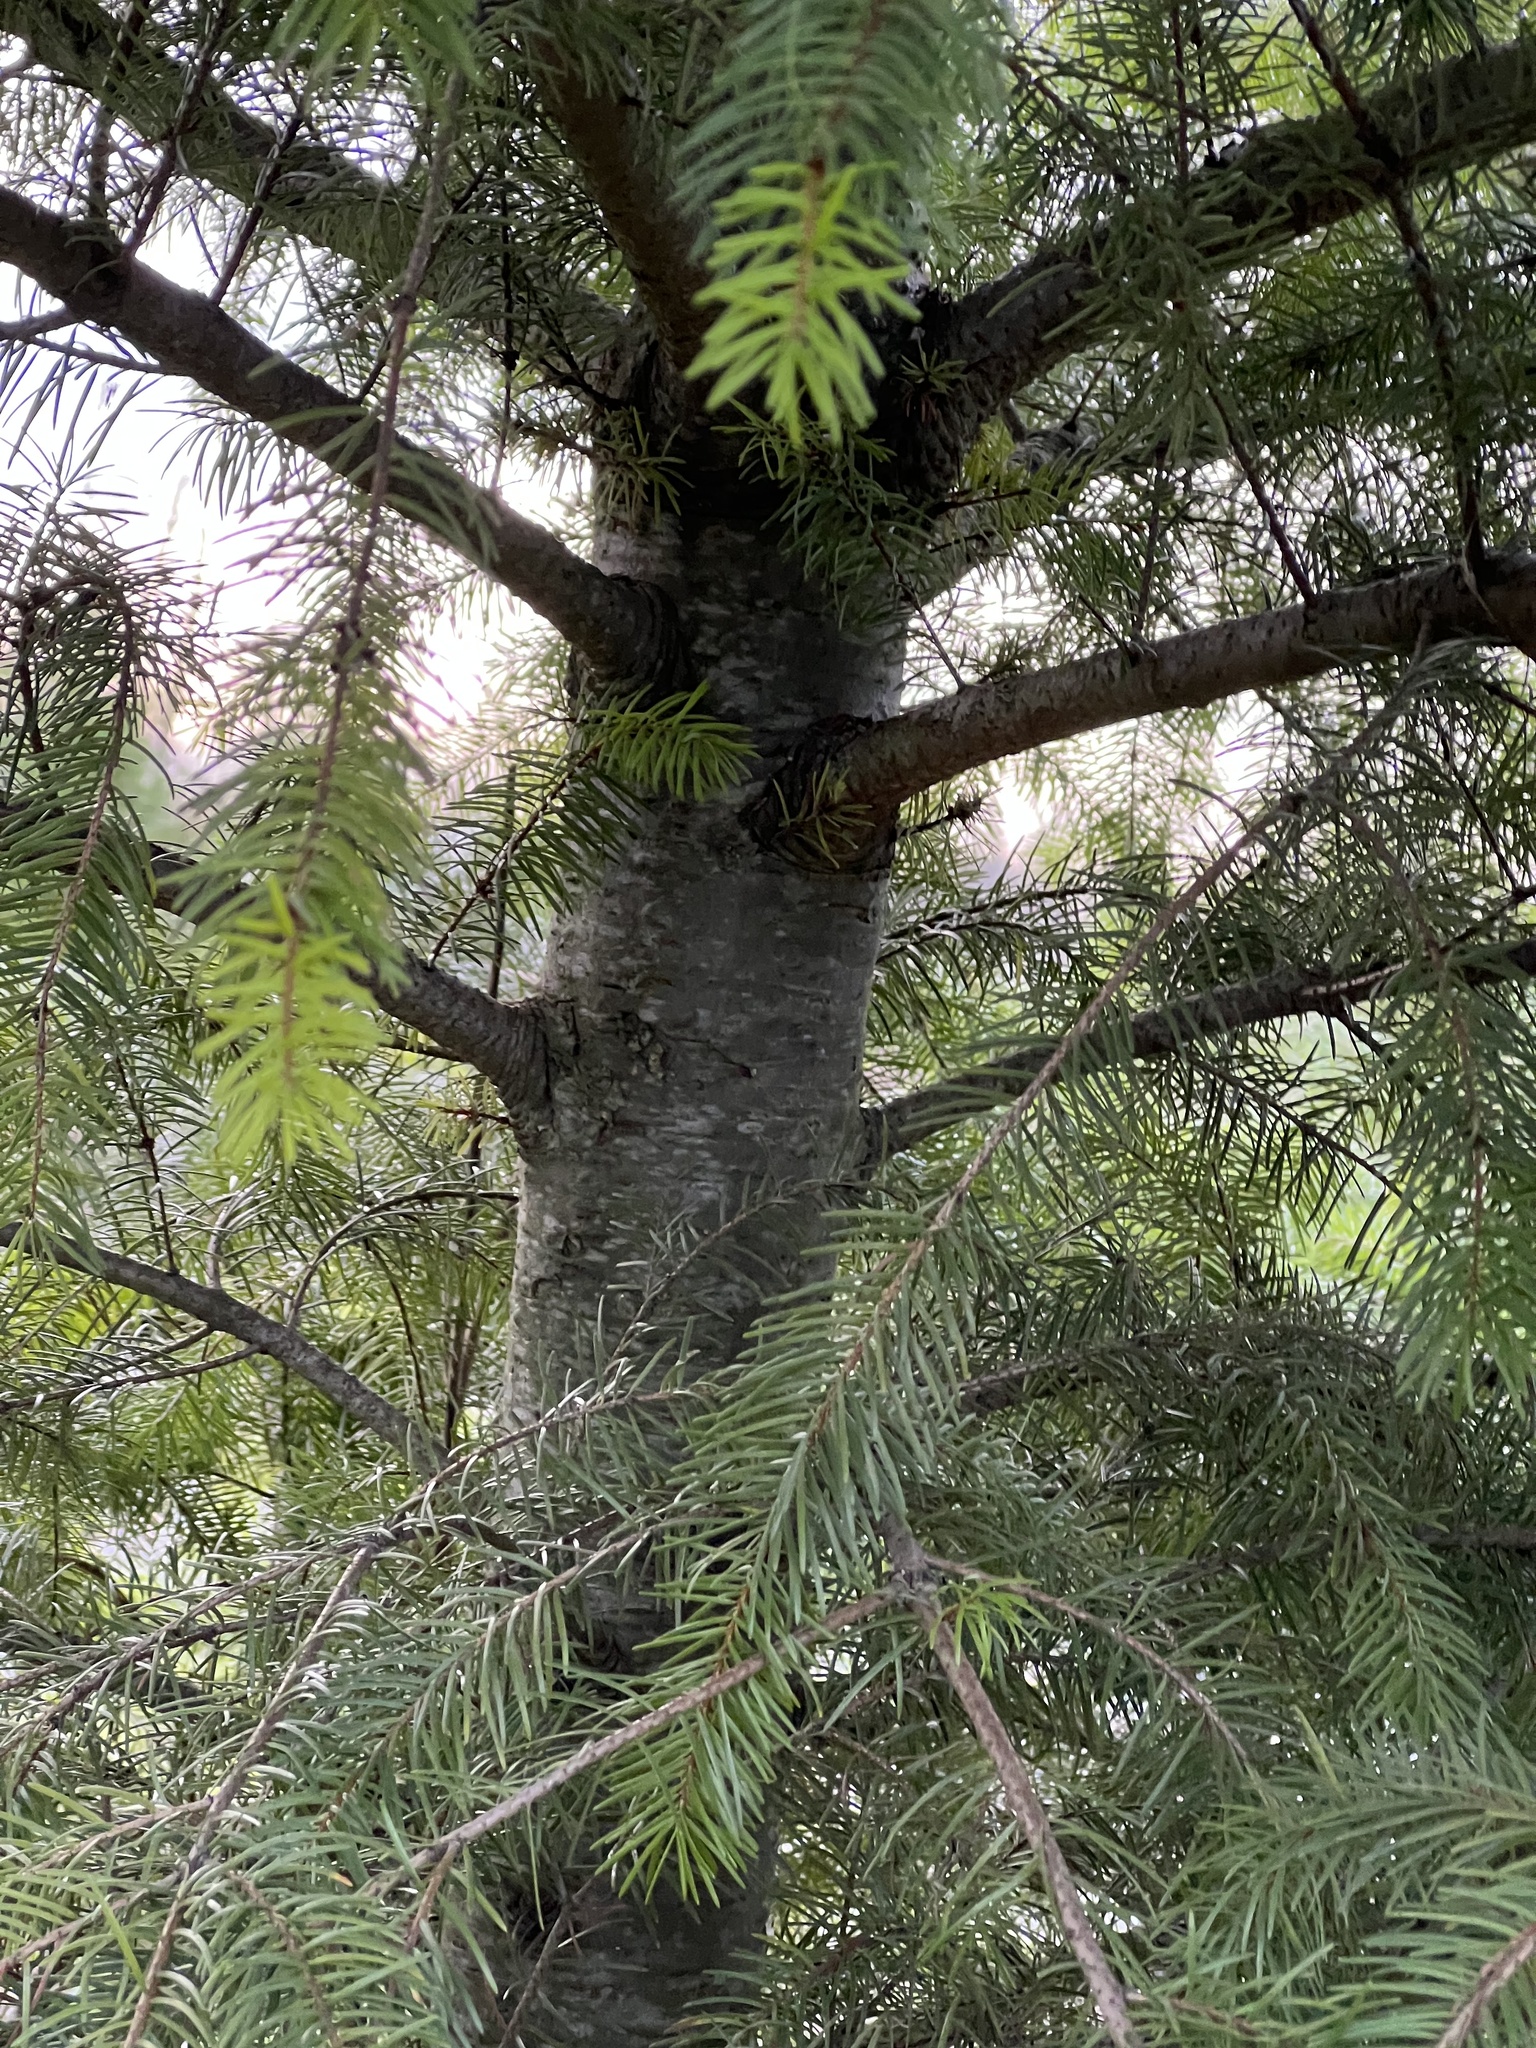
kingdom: Plantae
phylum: Tracheophyta
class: Pinopsida
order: Pinales
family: Pinaceae
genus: Pseudotsuga
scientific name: Pseudotsuga menziesii
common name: Douglas fir
